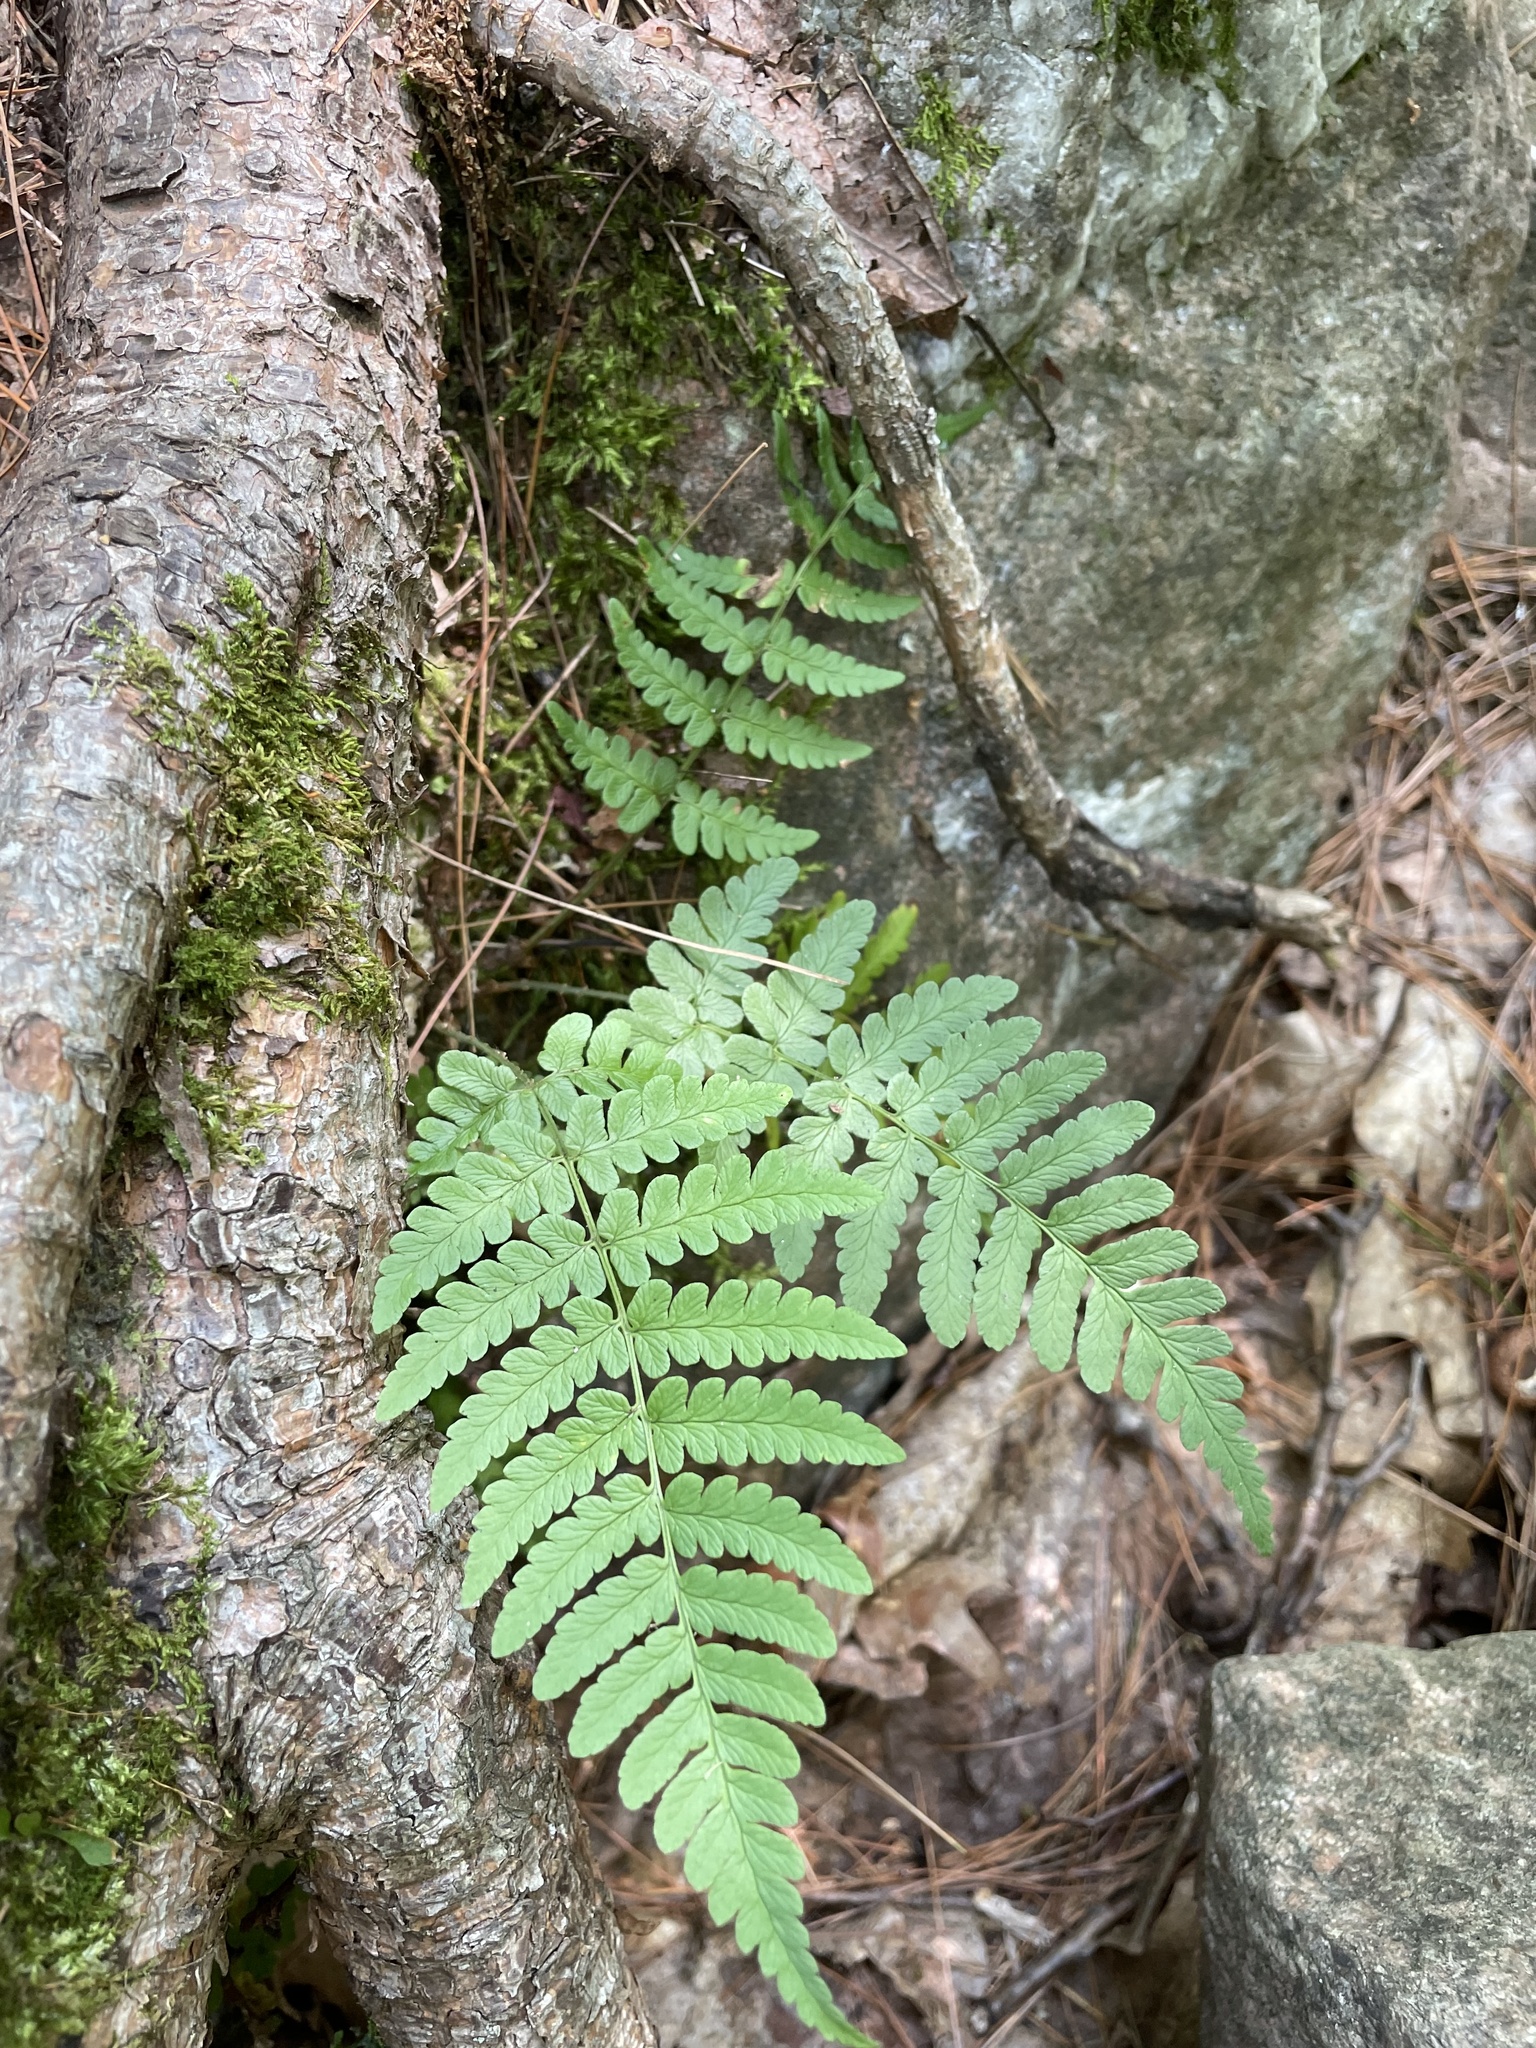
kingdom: Plantae
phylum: Tracheophyta
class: Polypodiopsida
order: Polypodiales
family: Dryopteridaceae
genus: Dryopteris
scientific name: Dryopteris marginalis
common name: Marginal wood fern
